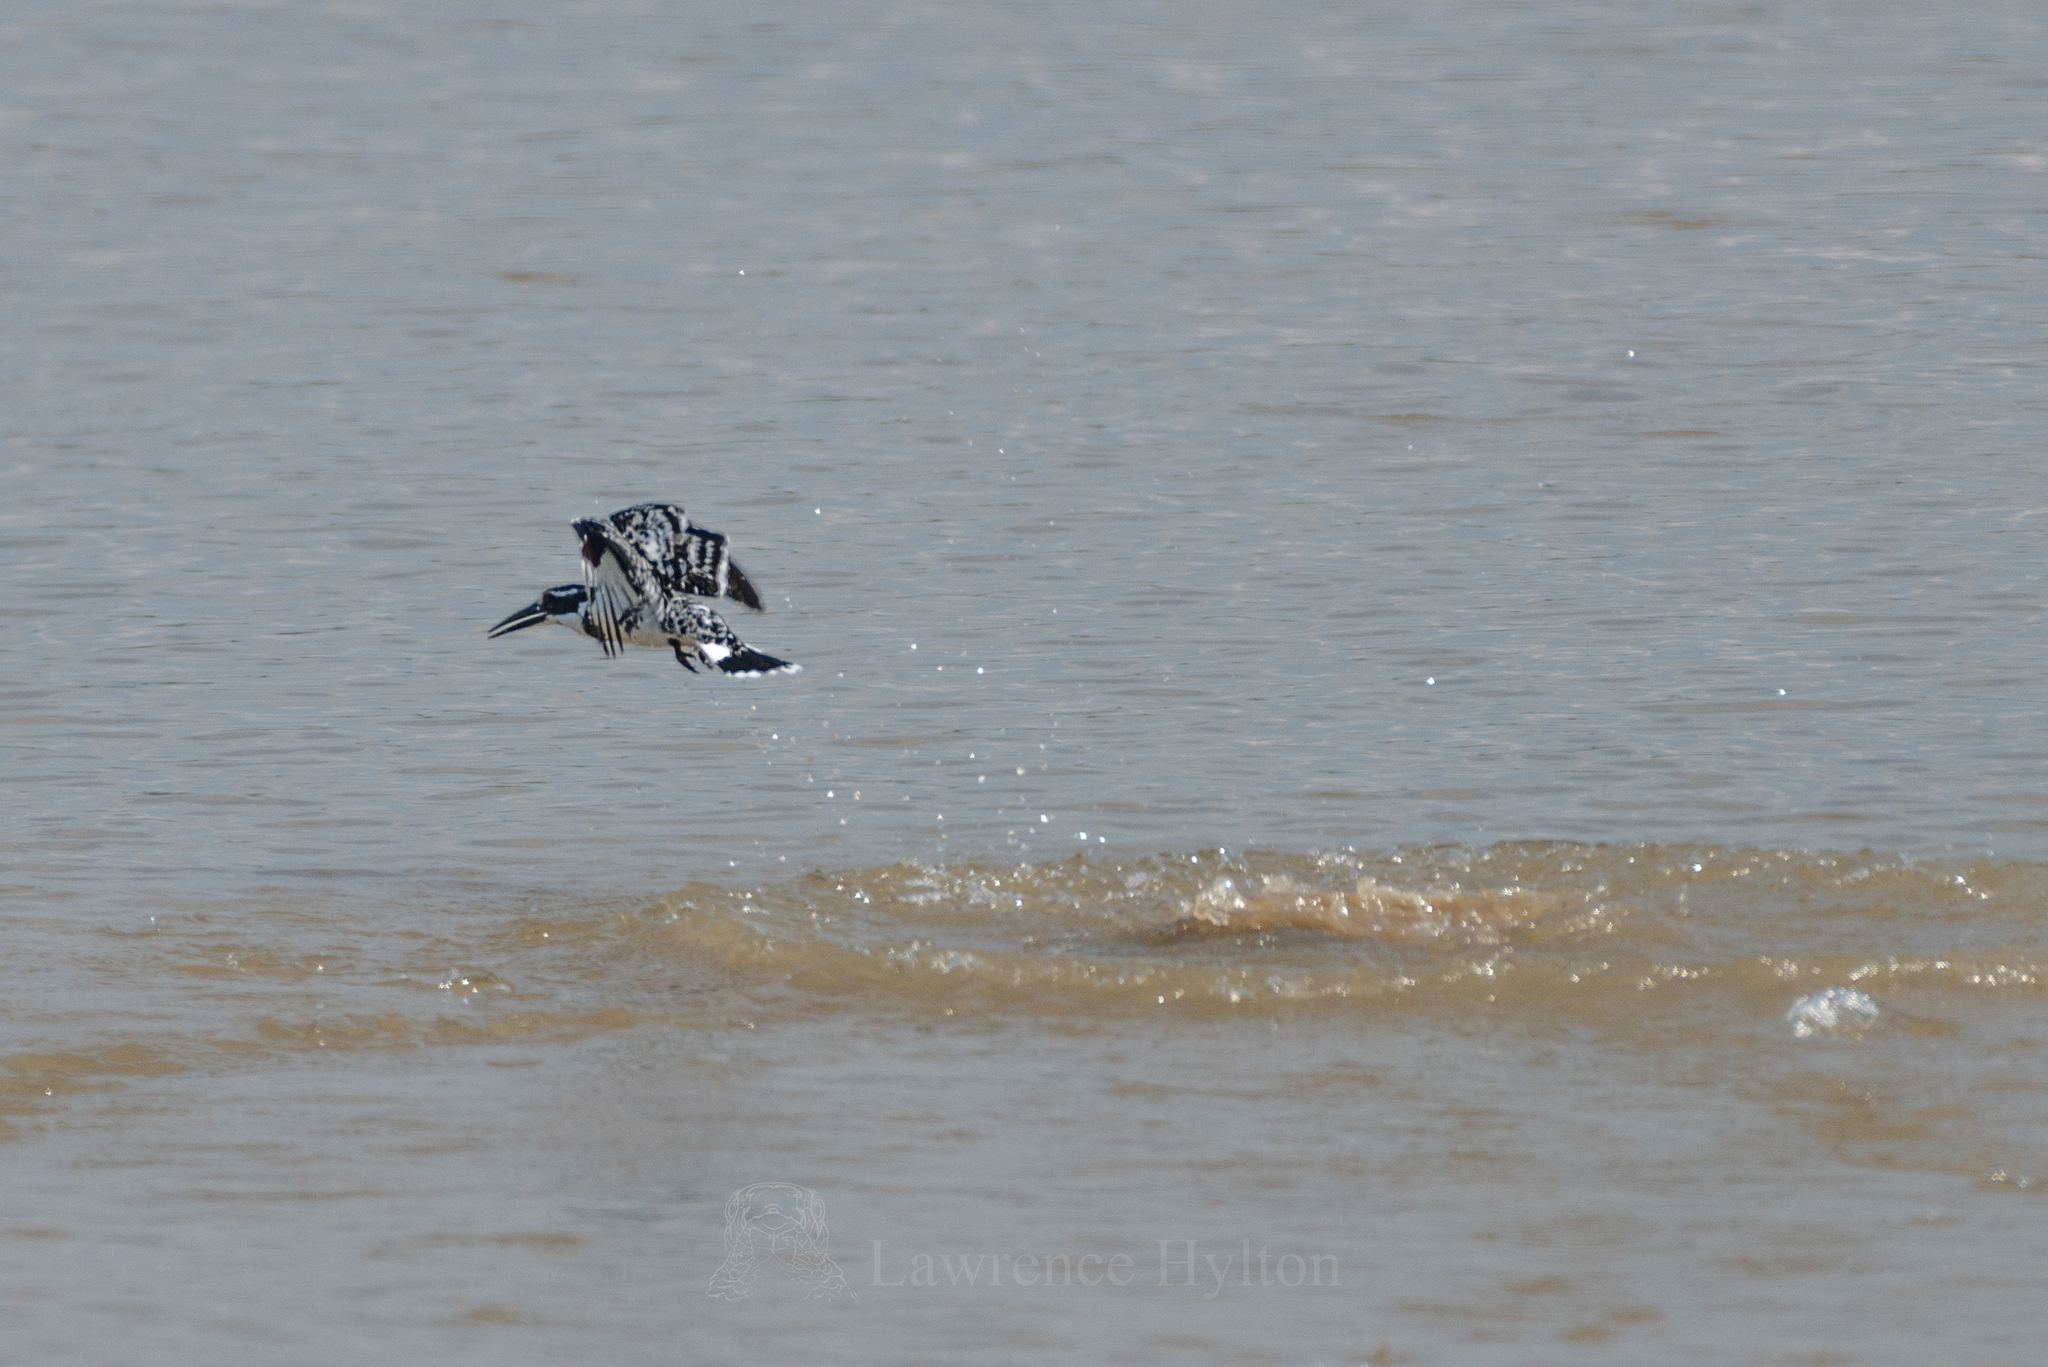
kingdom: Animalia
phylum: Chordata
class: Aves
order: Coraciiformes
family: Alcedinidae
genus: Ceryle
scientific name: Ceryle rudis
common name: Pied kingfisher
